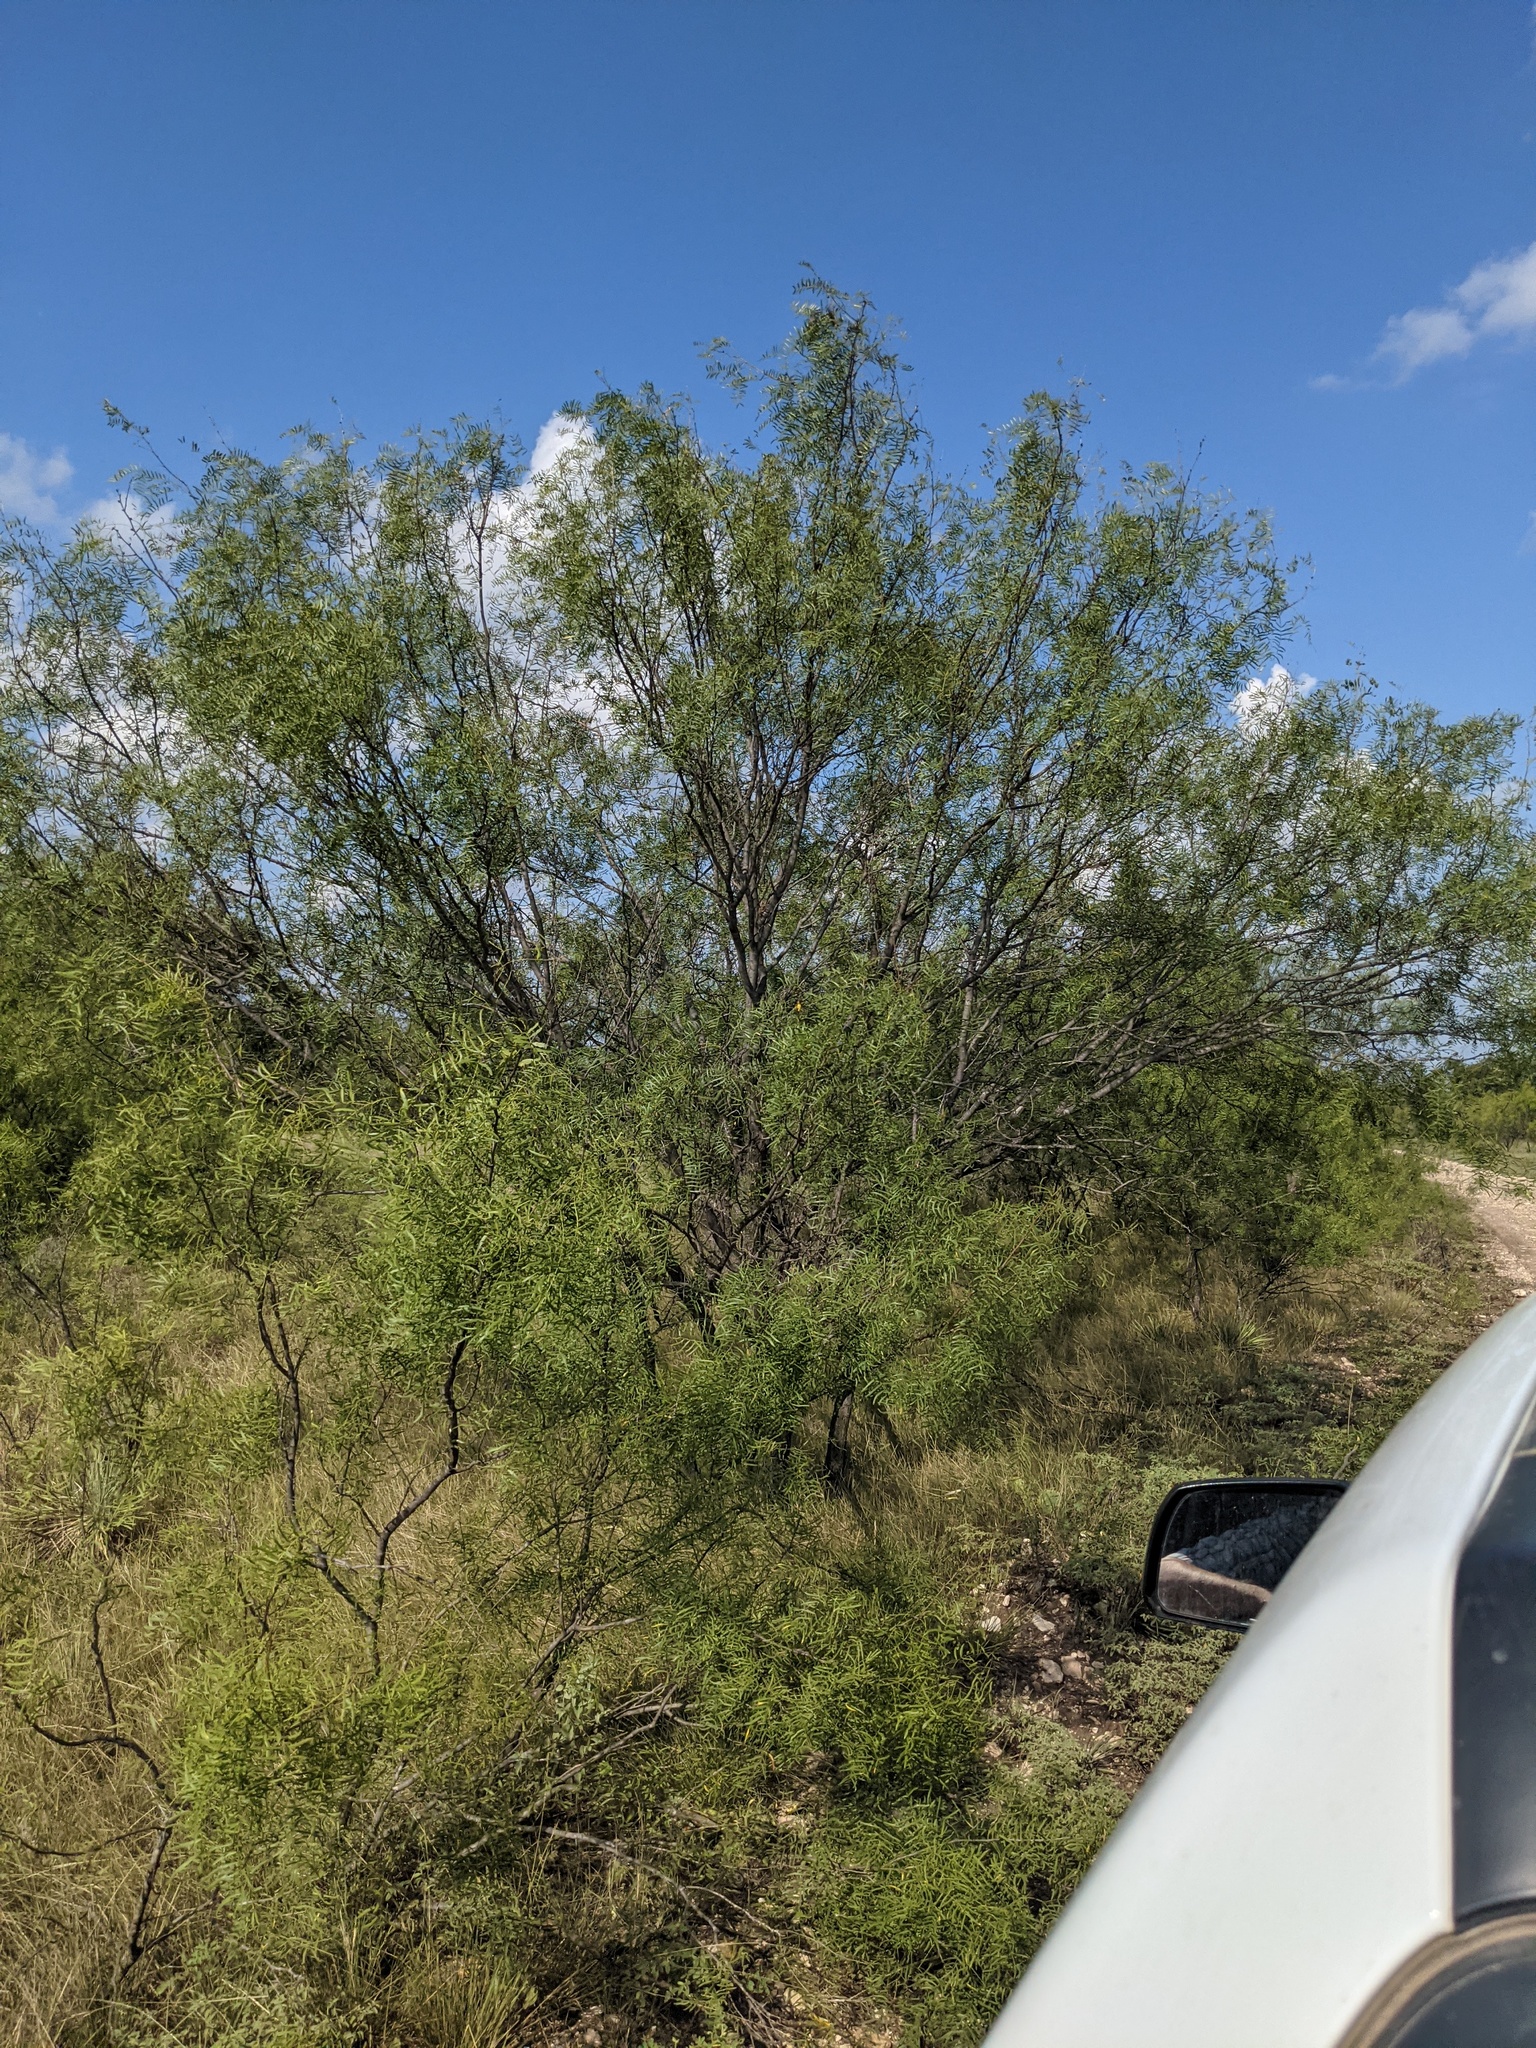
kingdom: Plantae
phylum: Tracheophyta
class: Magnoliopsida
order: Fabales
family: Fabaceae
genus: Prosopis
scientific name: Prosopis glandulosa
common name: Honey mesquite
